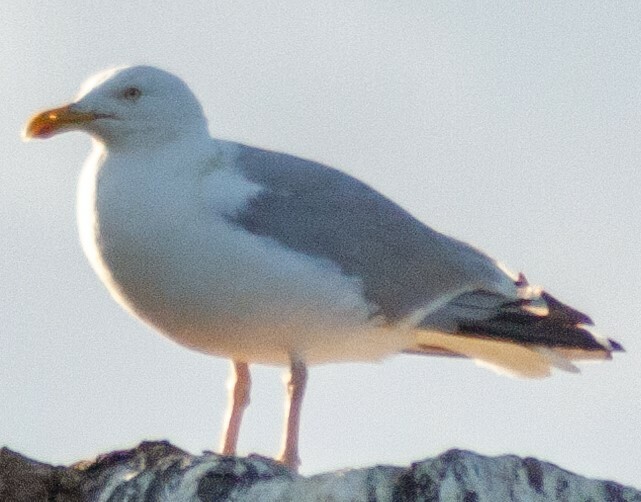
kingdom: Animalia
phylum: Chordata
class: Aves
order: Charadriiformes
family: Laridae
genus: Larus
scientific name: Larus argentatus
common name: Herring gull
